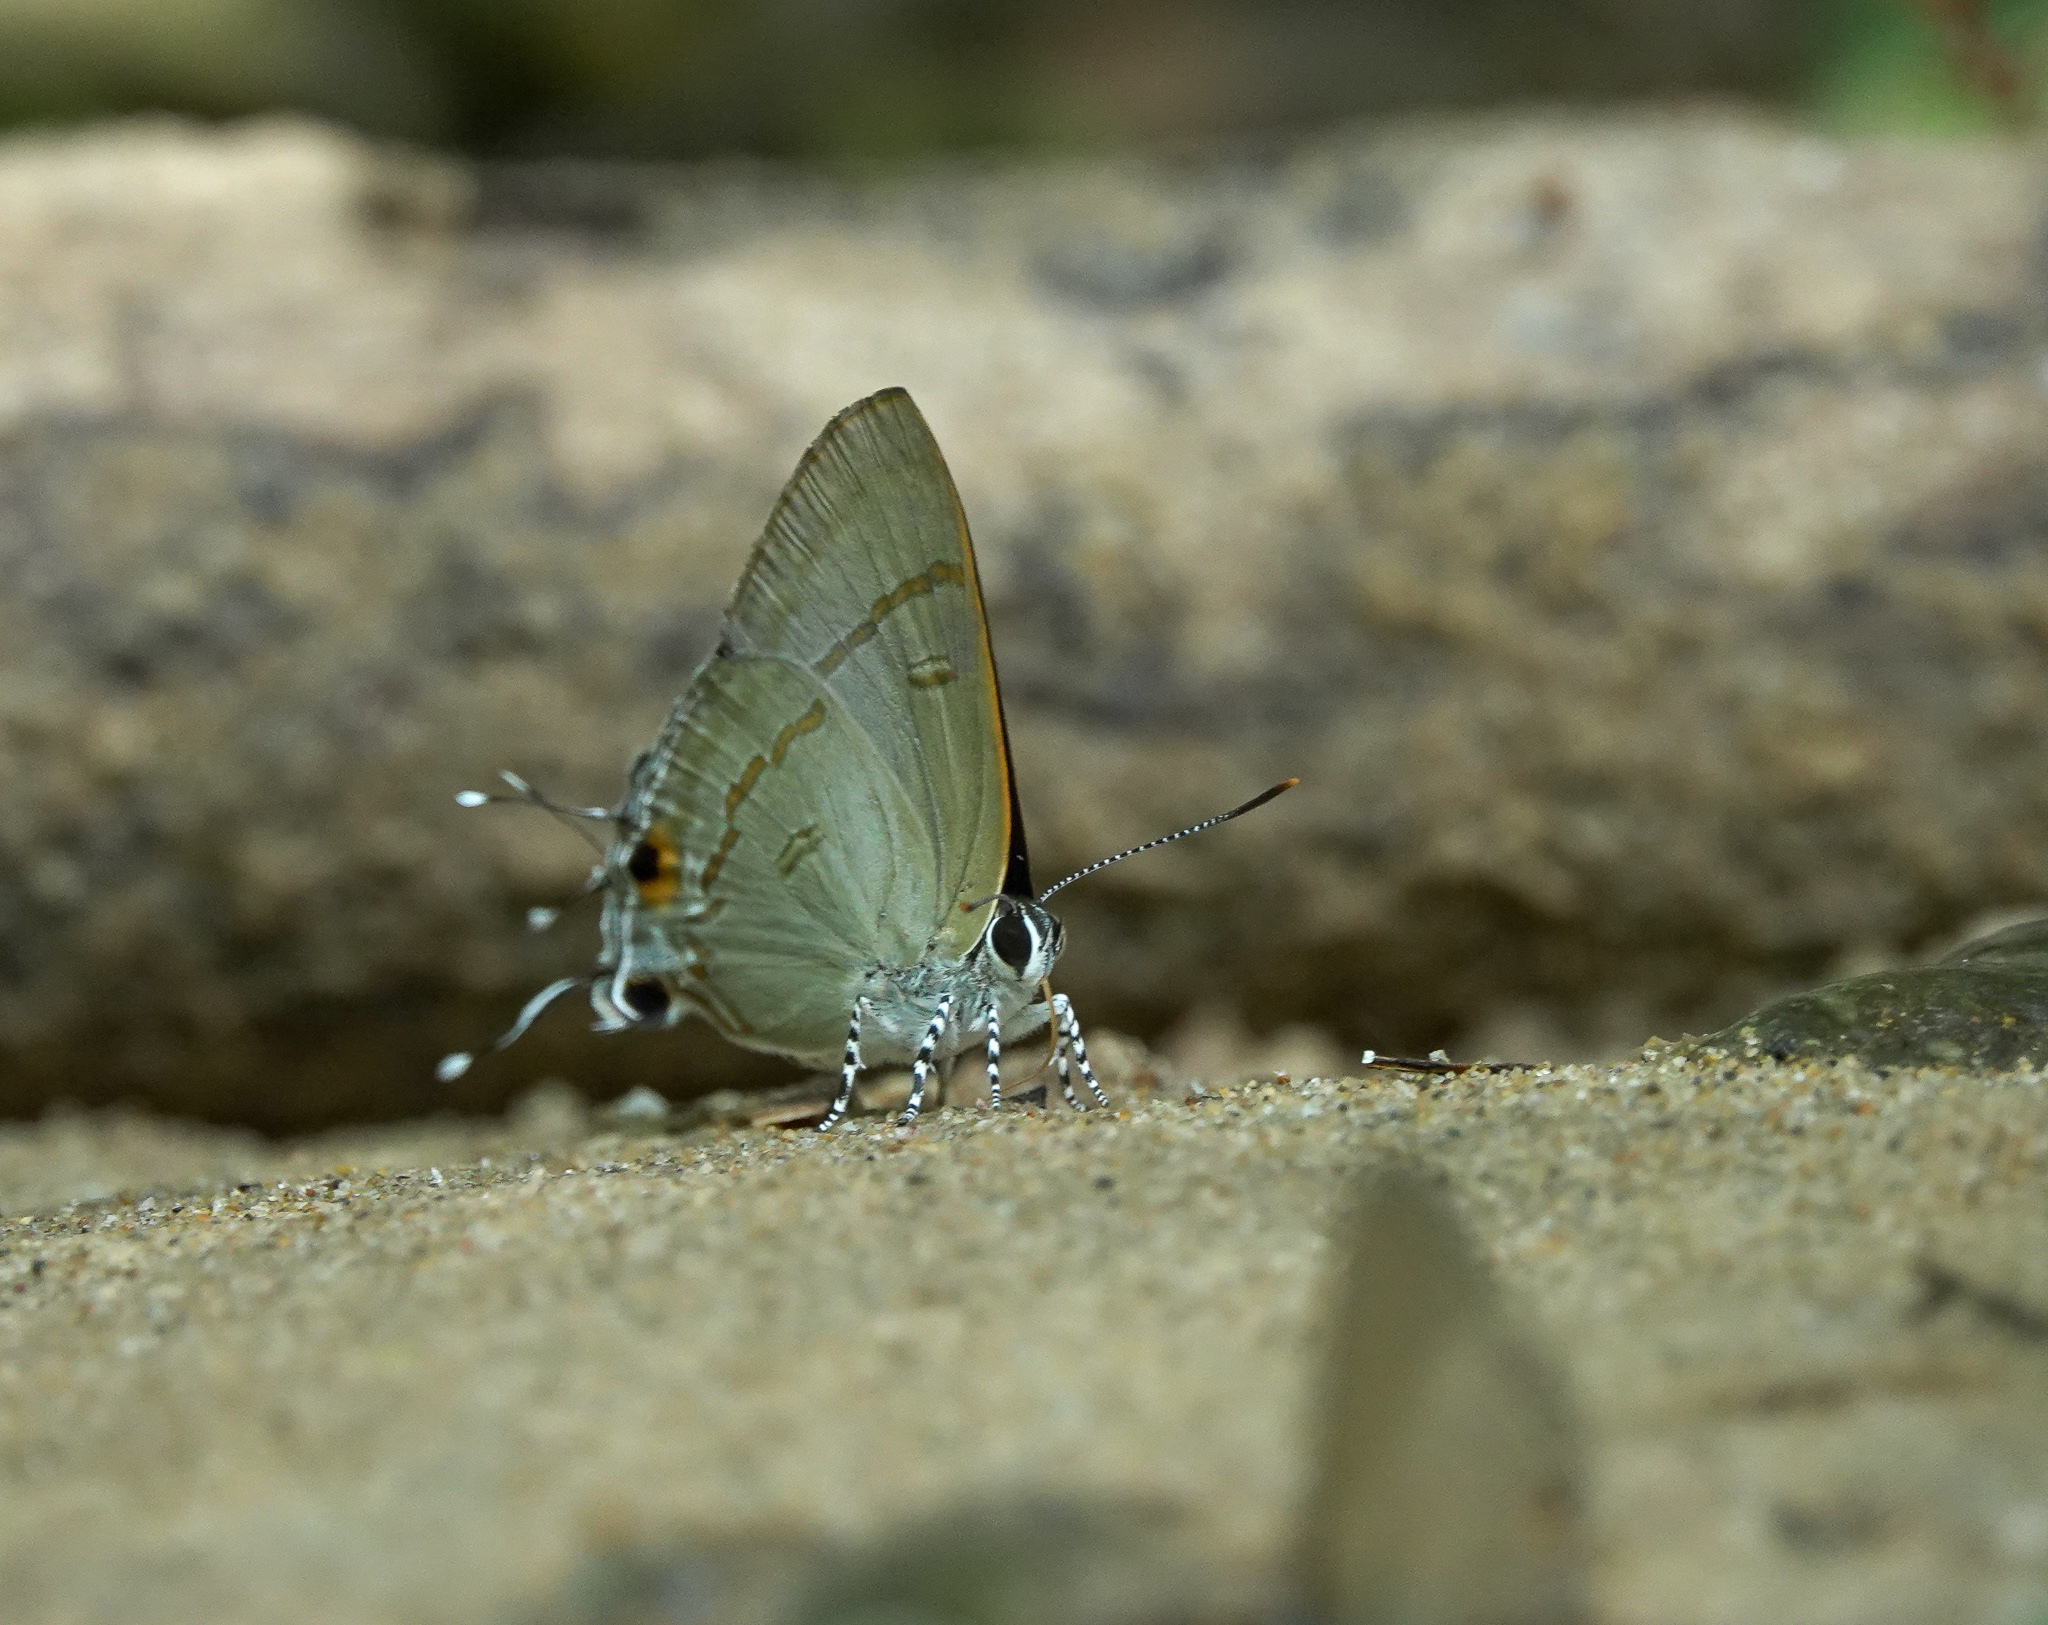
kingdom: Animalia
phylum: Arthropoda
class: Insecta
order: Lepidoptera
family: Lycaenidae
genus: Hypolycaena
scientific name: Hypolycaena erylus
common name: Common tit
